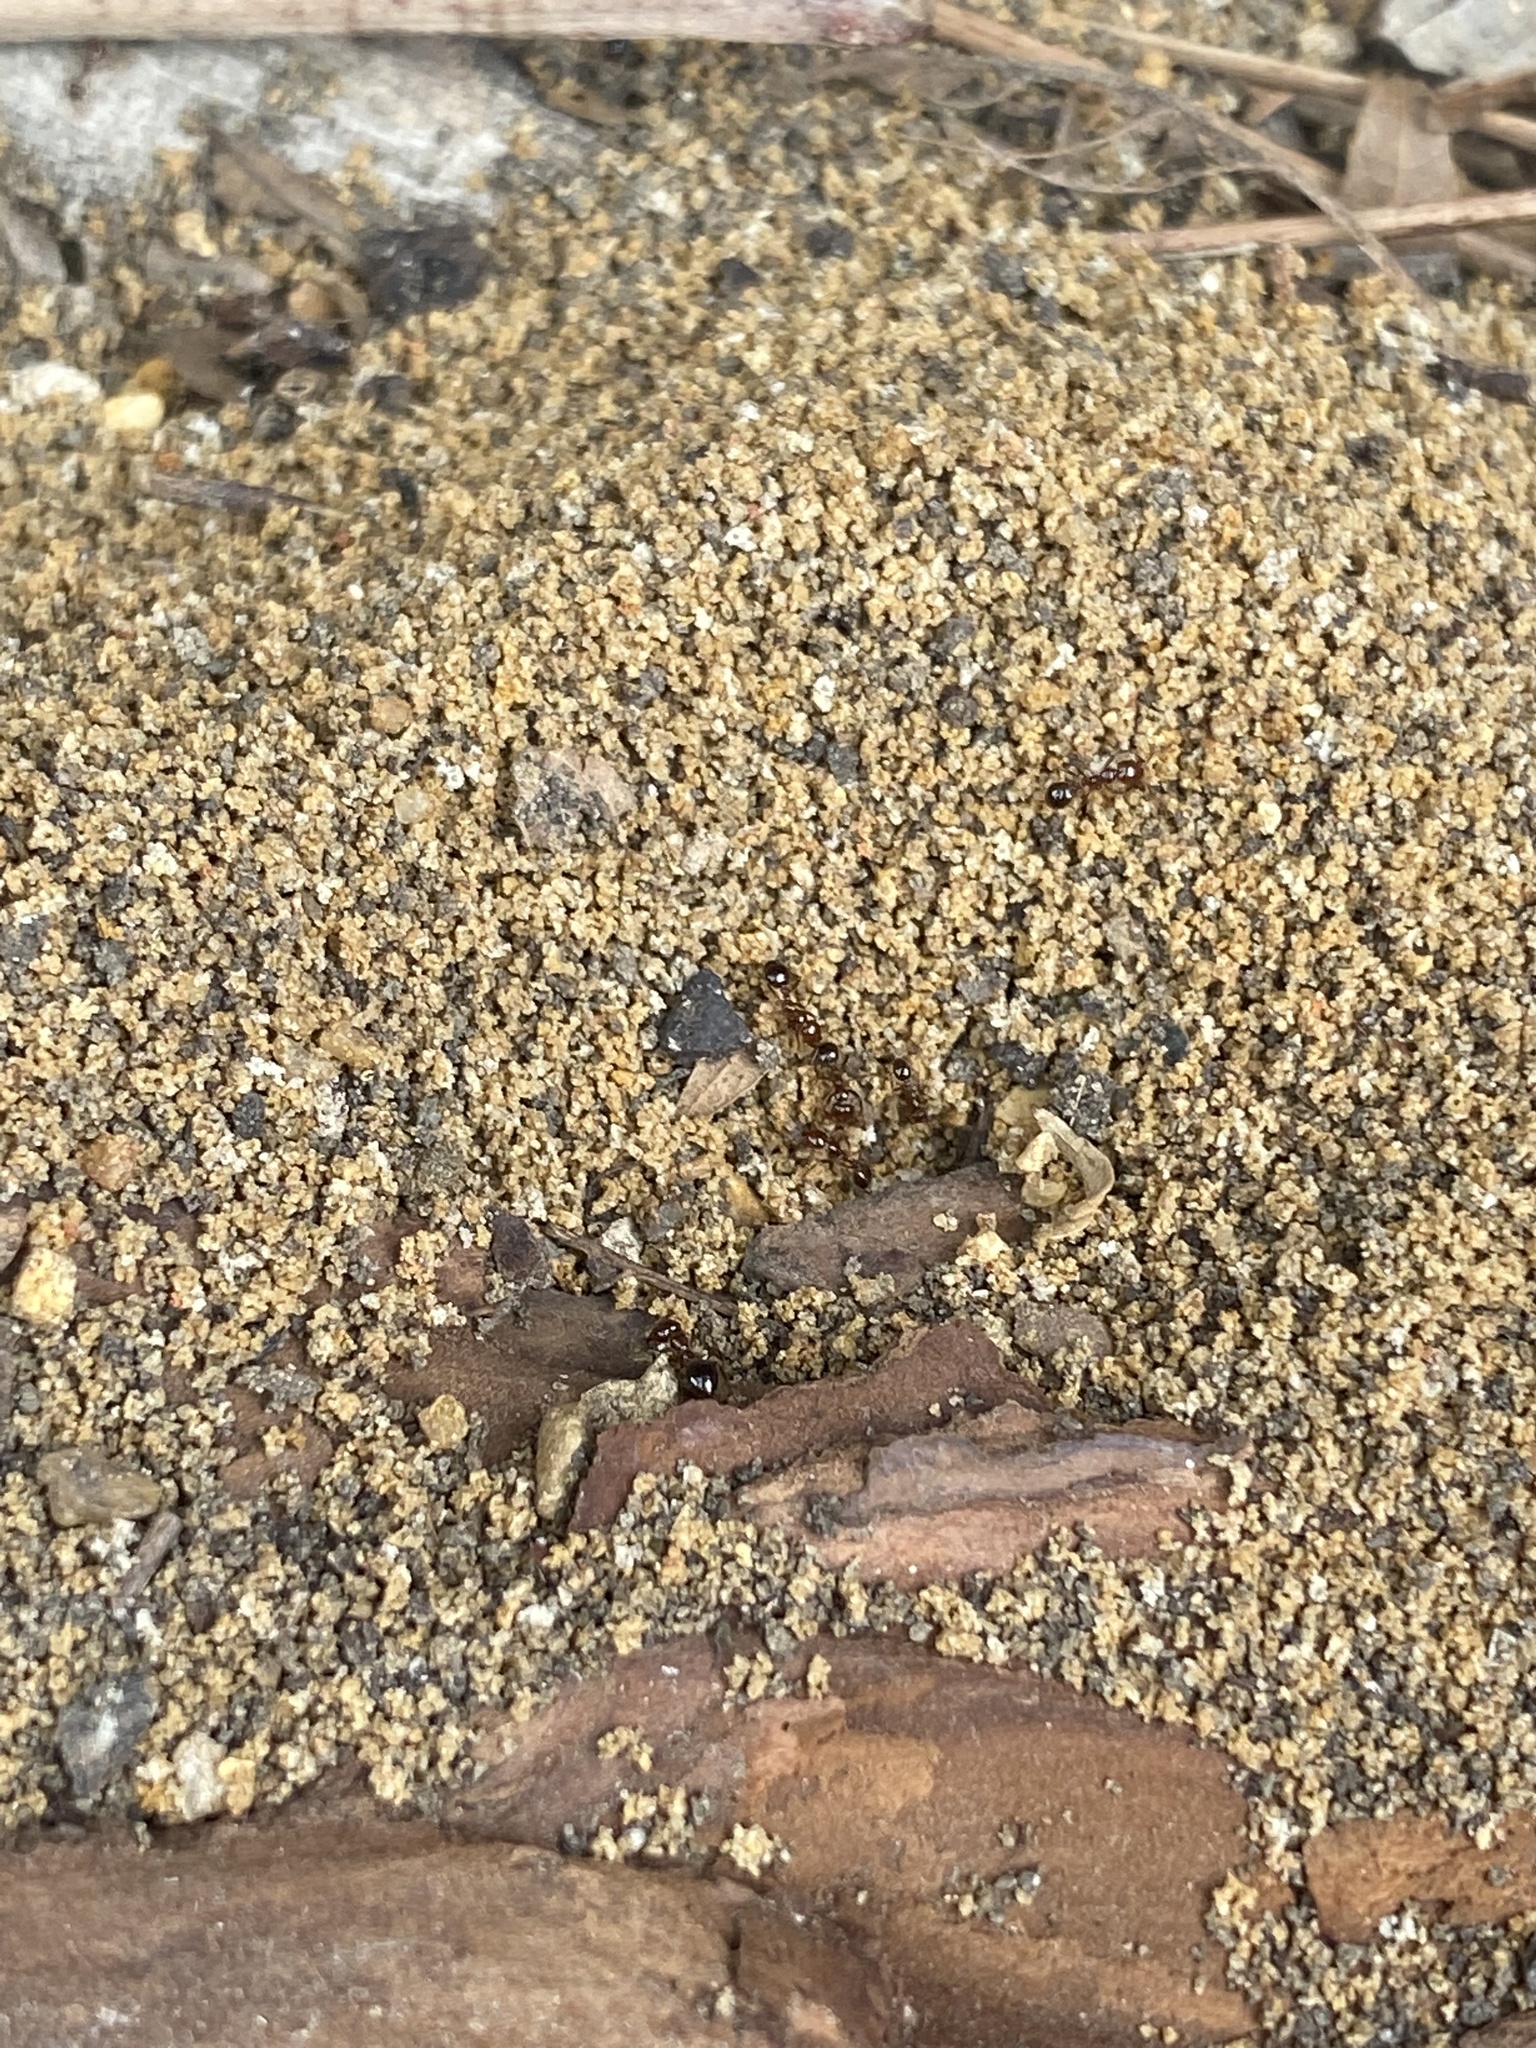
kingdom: Animalia
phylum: Arthropoda
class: Insecta
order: Hymenoptera
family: Formicidae
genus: Solenopsis
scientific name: Solenopsis invicta
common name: Red imported fire ant
